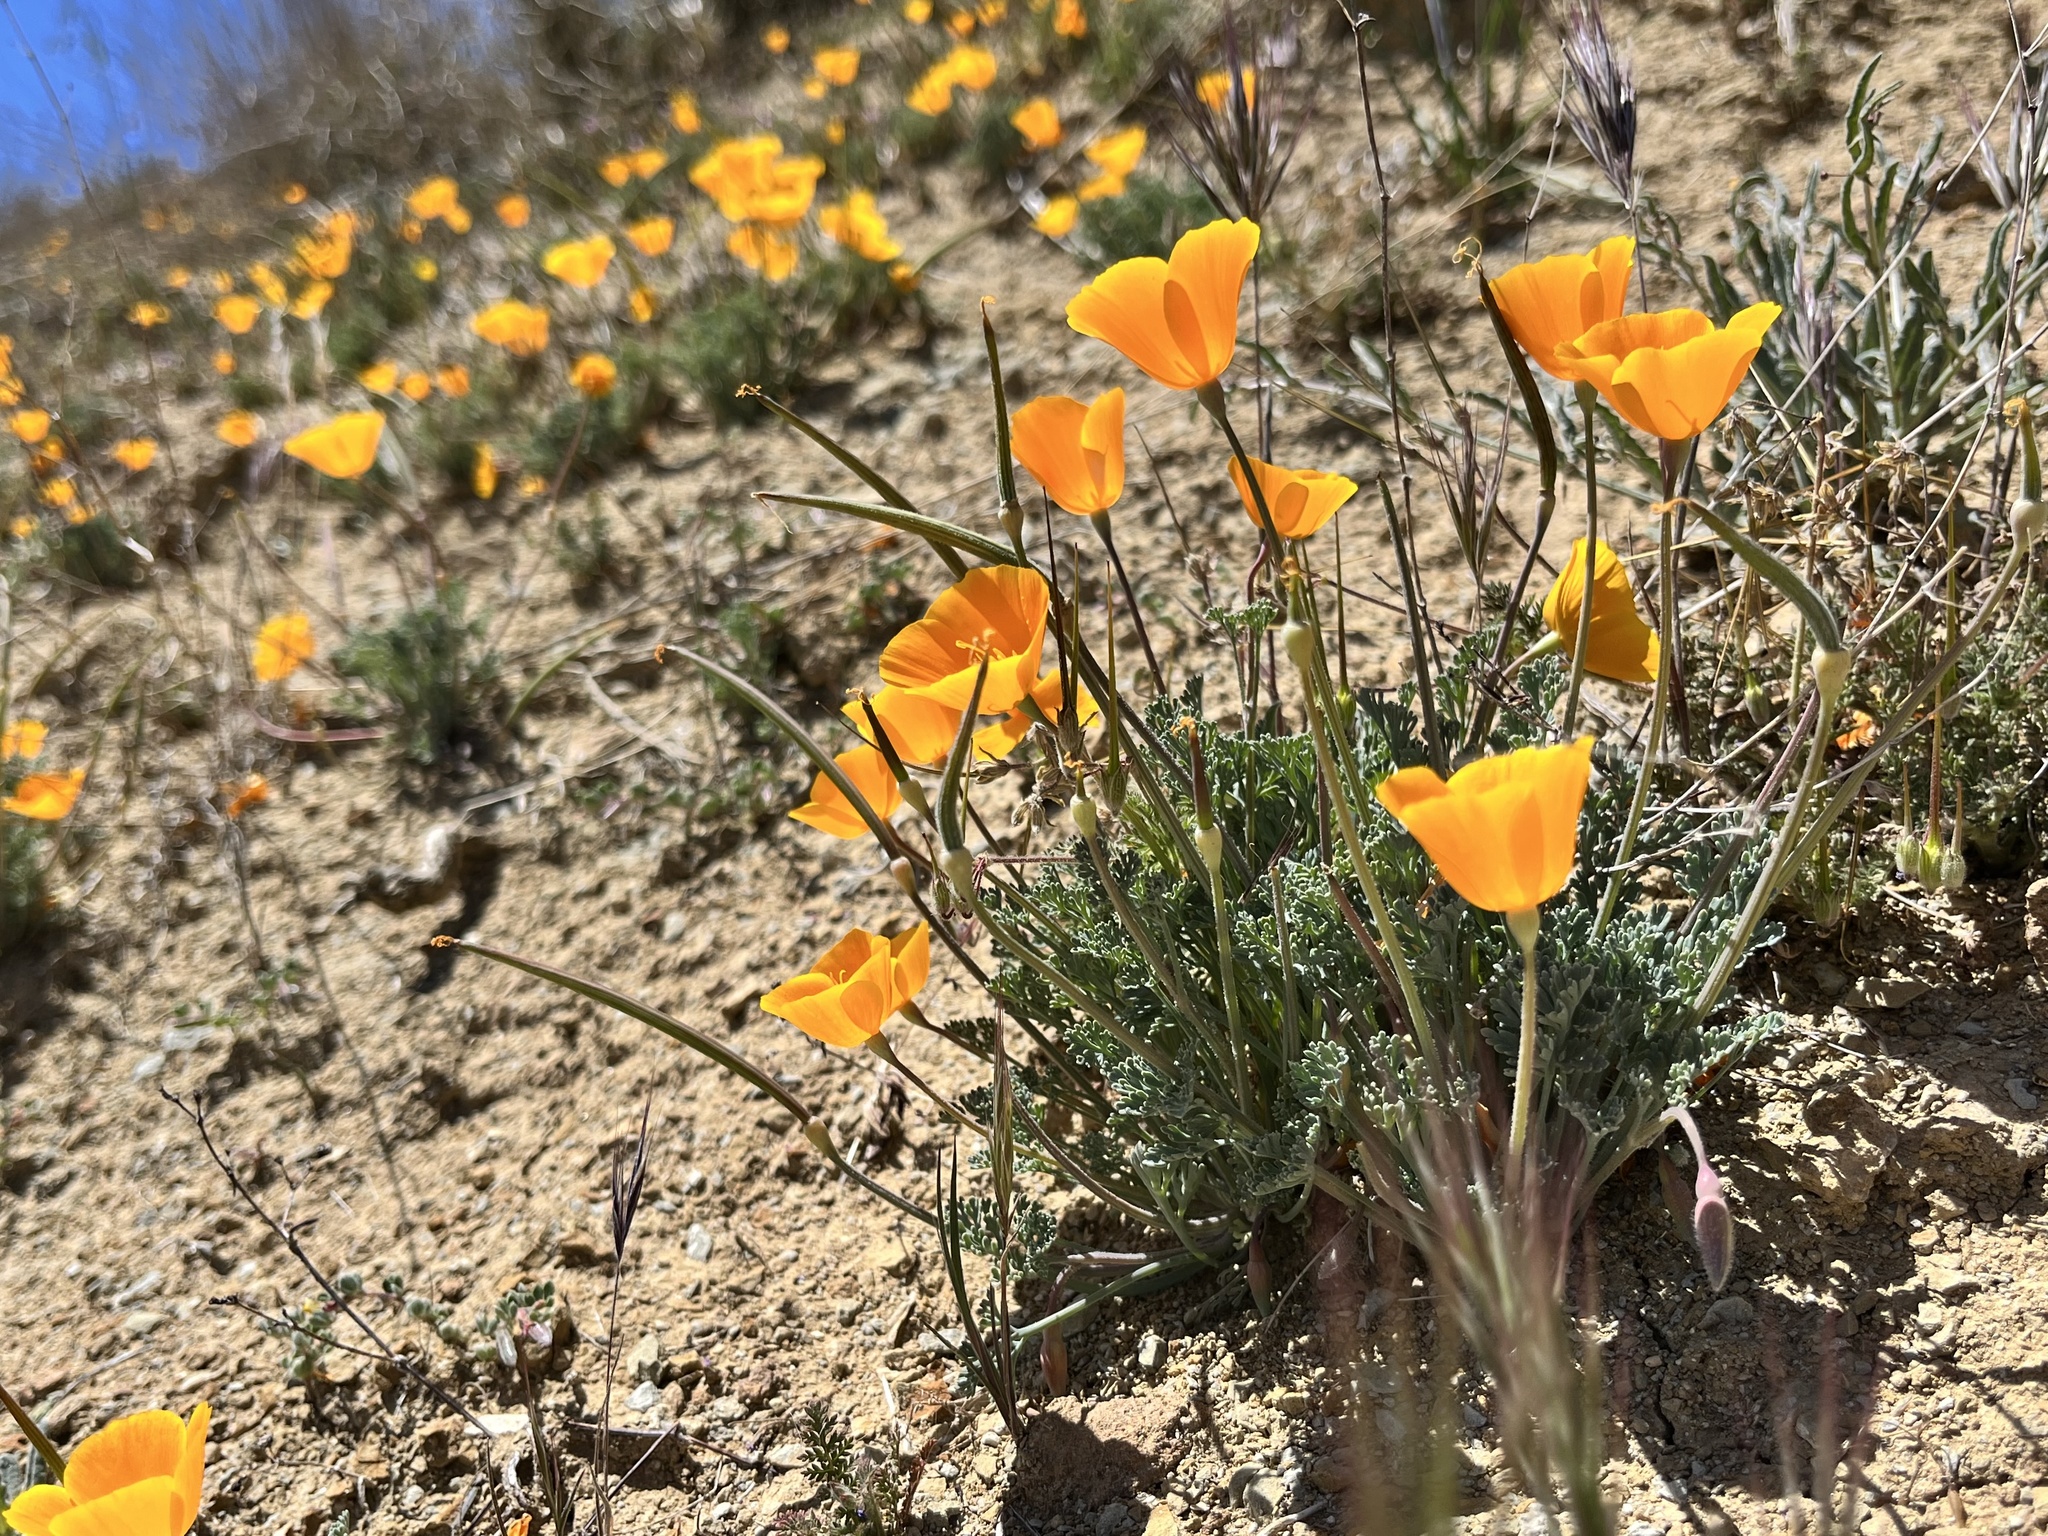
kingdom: Plantae
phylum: Tracheophyta
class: Magnoliopsida
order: Ranunculales
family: Papaveraceae
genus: Eschscholzia
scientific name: Eschscholzia lemmonii
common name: Lemmon's poppy
